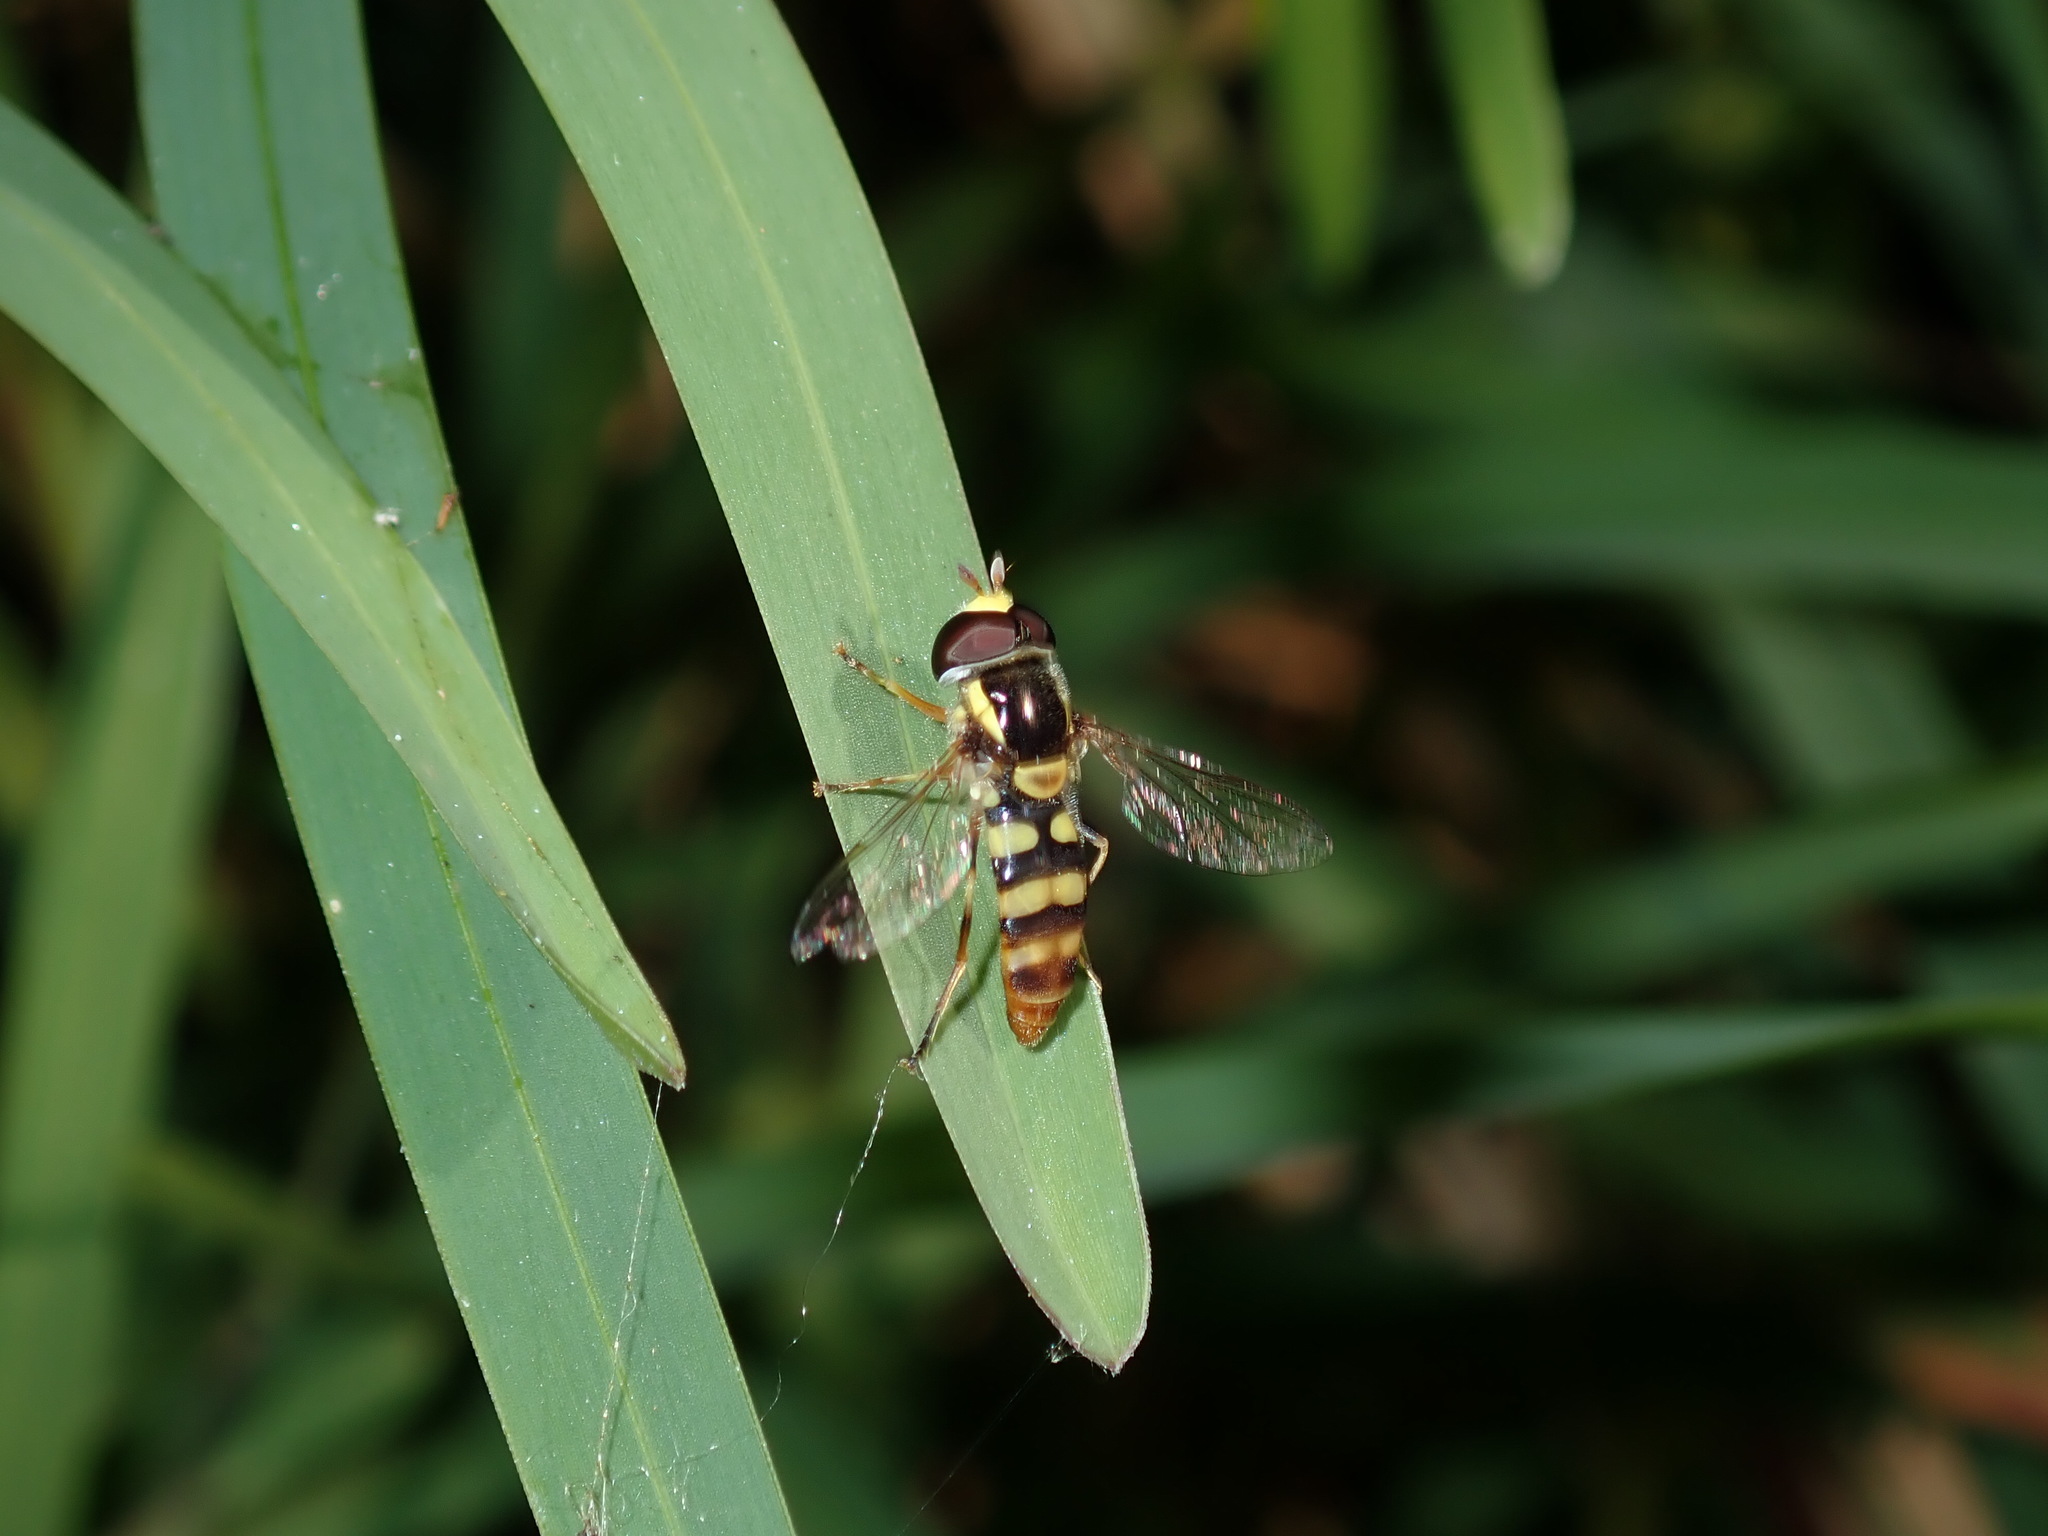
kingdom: Animalia
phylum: Arthropoda
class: Insecta
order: Diptera
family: Syrphidae
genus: Ischiodon
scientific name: Ischiodon scutellaris
